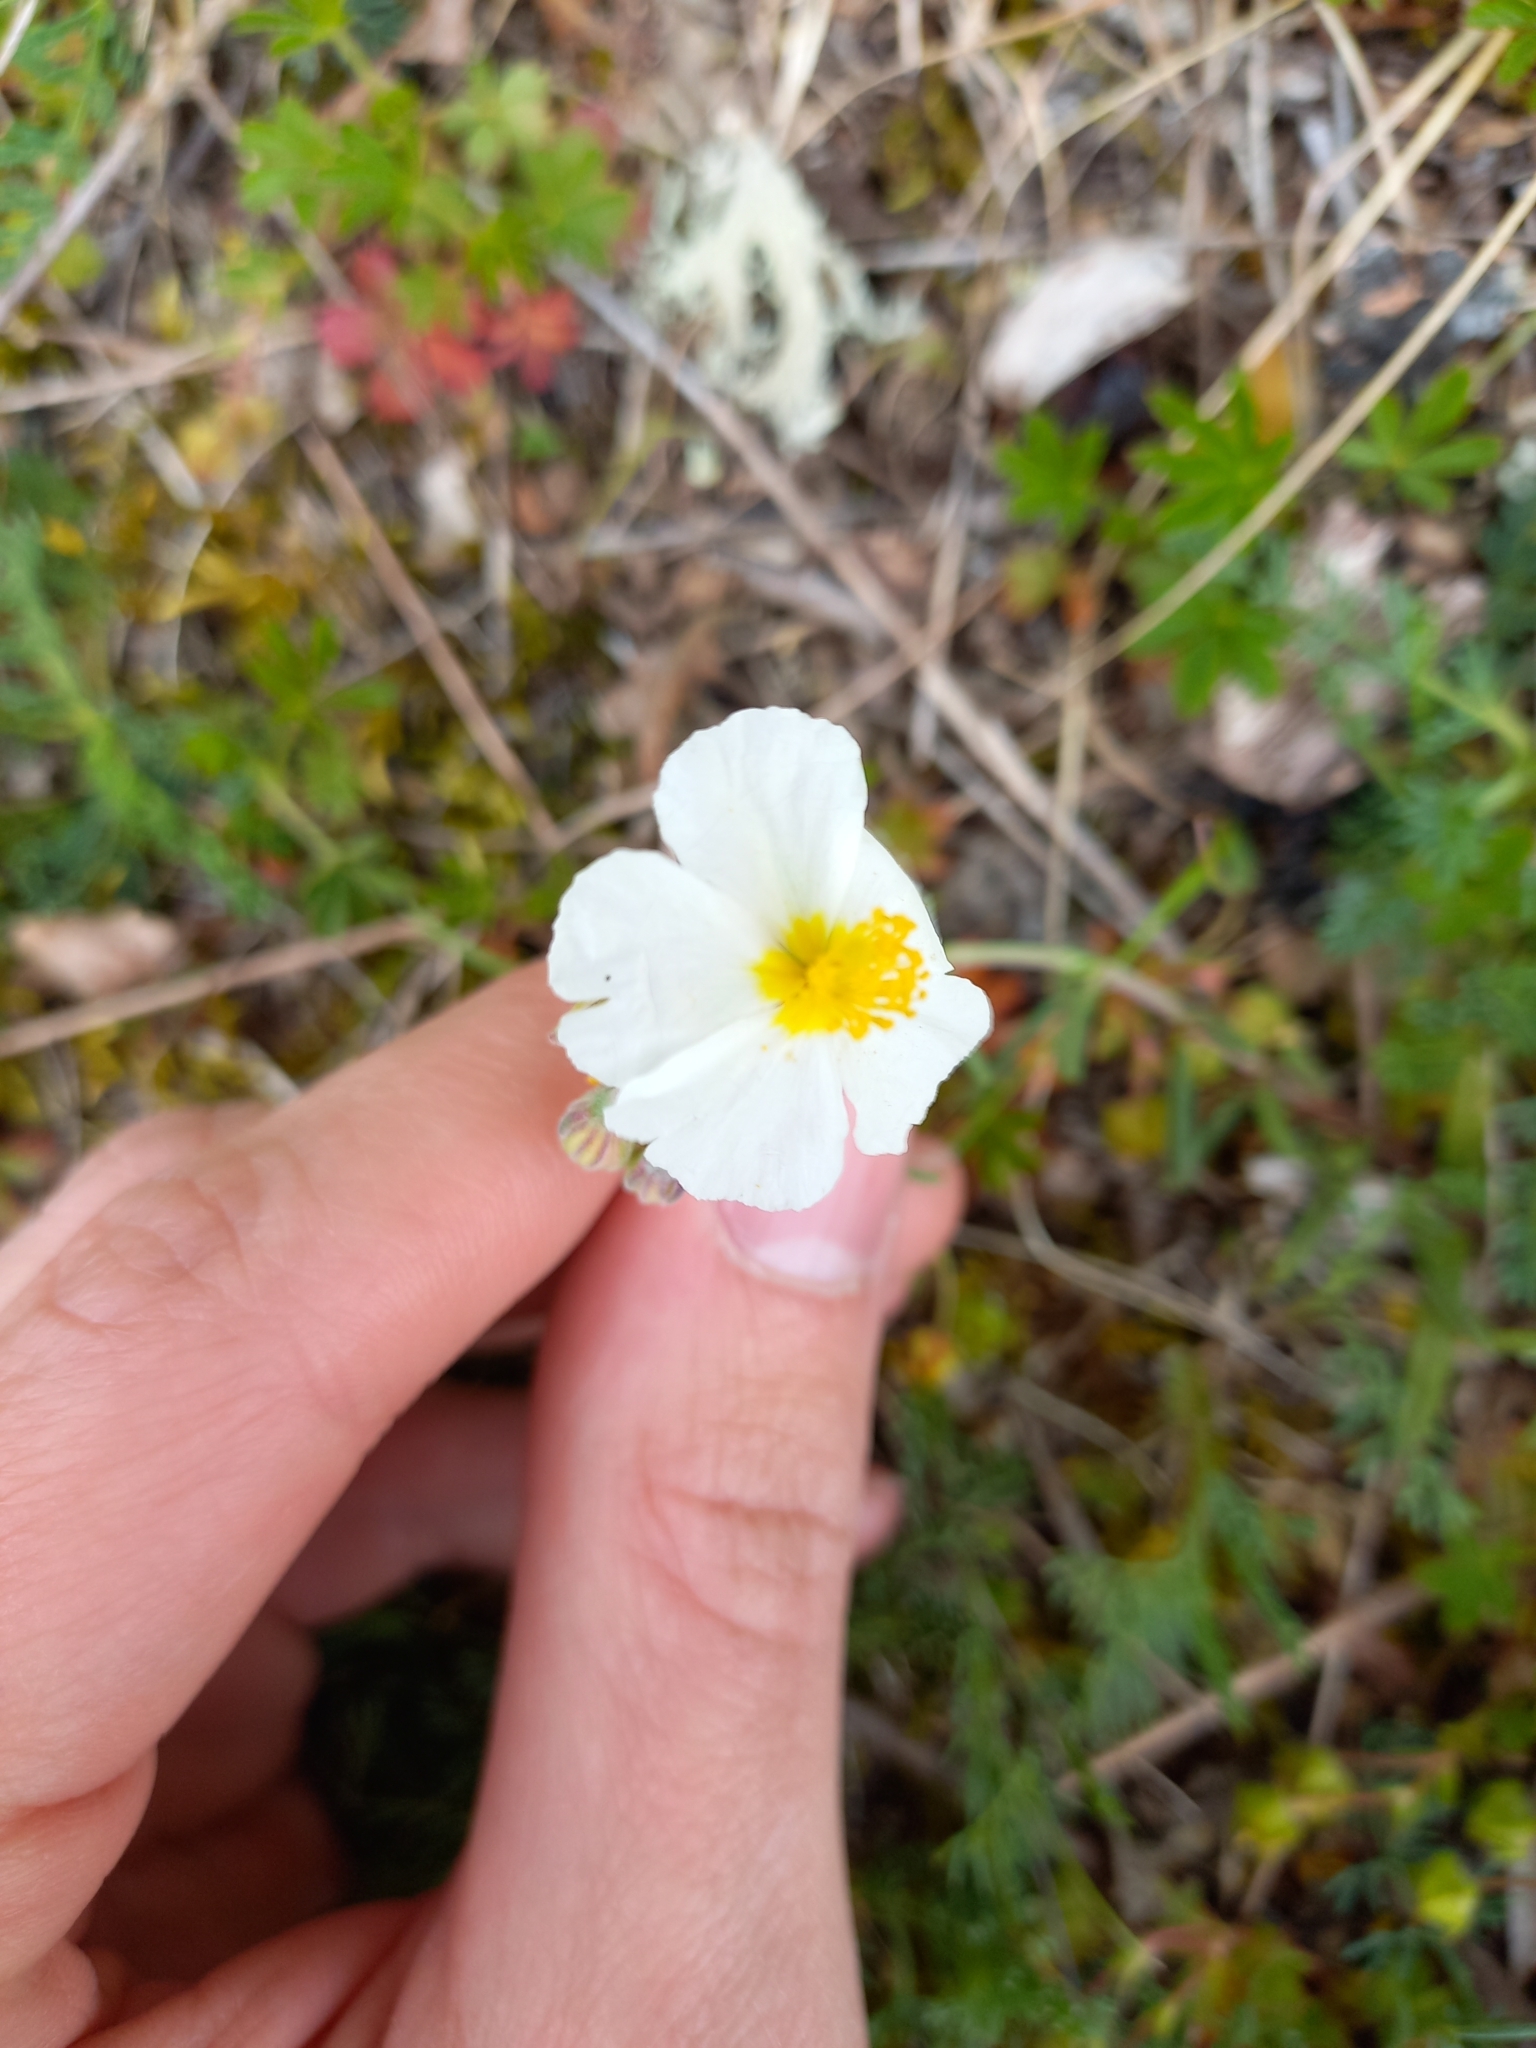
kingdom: Plantae
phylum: Tracheophyta
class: Magnoliopsida
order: Malvales
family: Cistaceae
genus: Helianthemum
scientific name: Helianthemum apenninum
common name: White rock-rose
